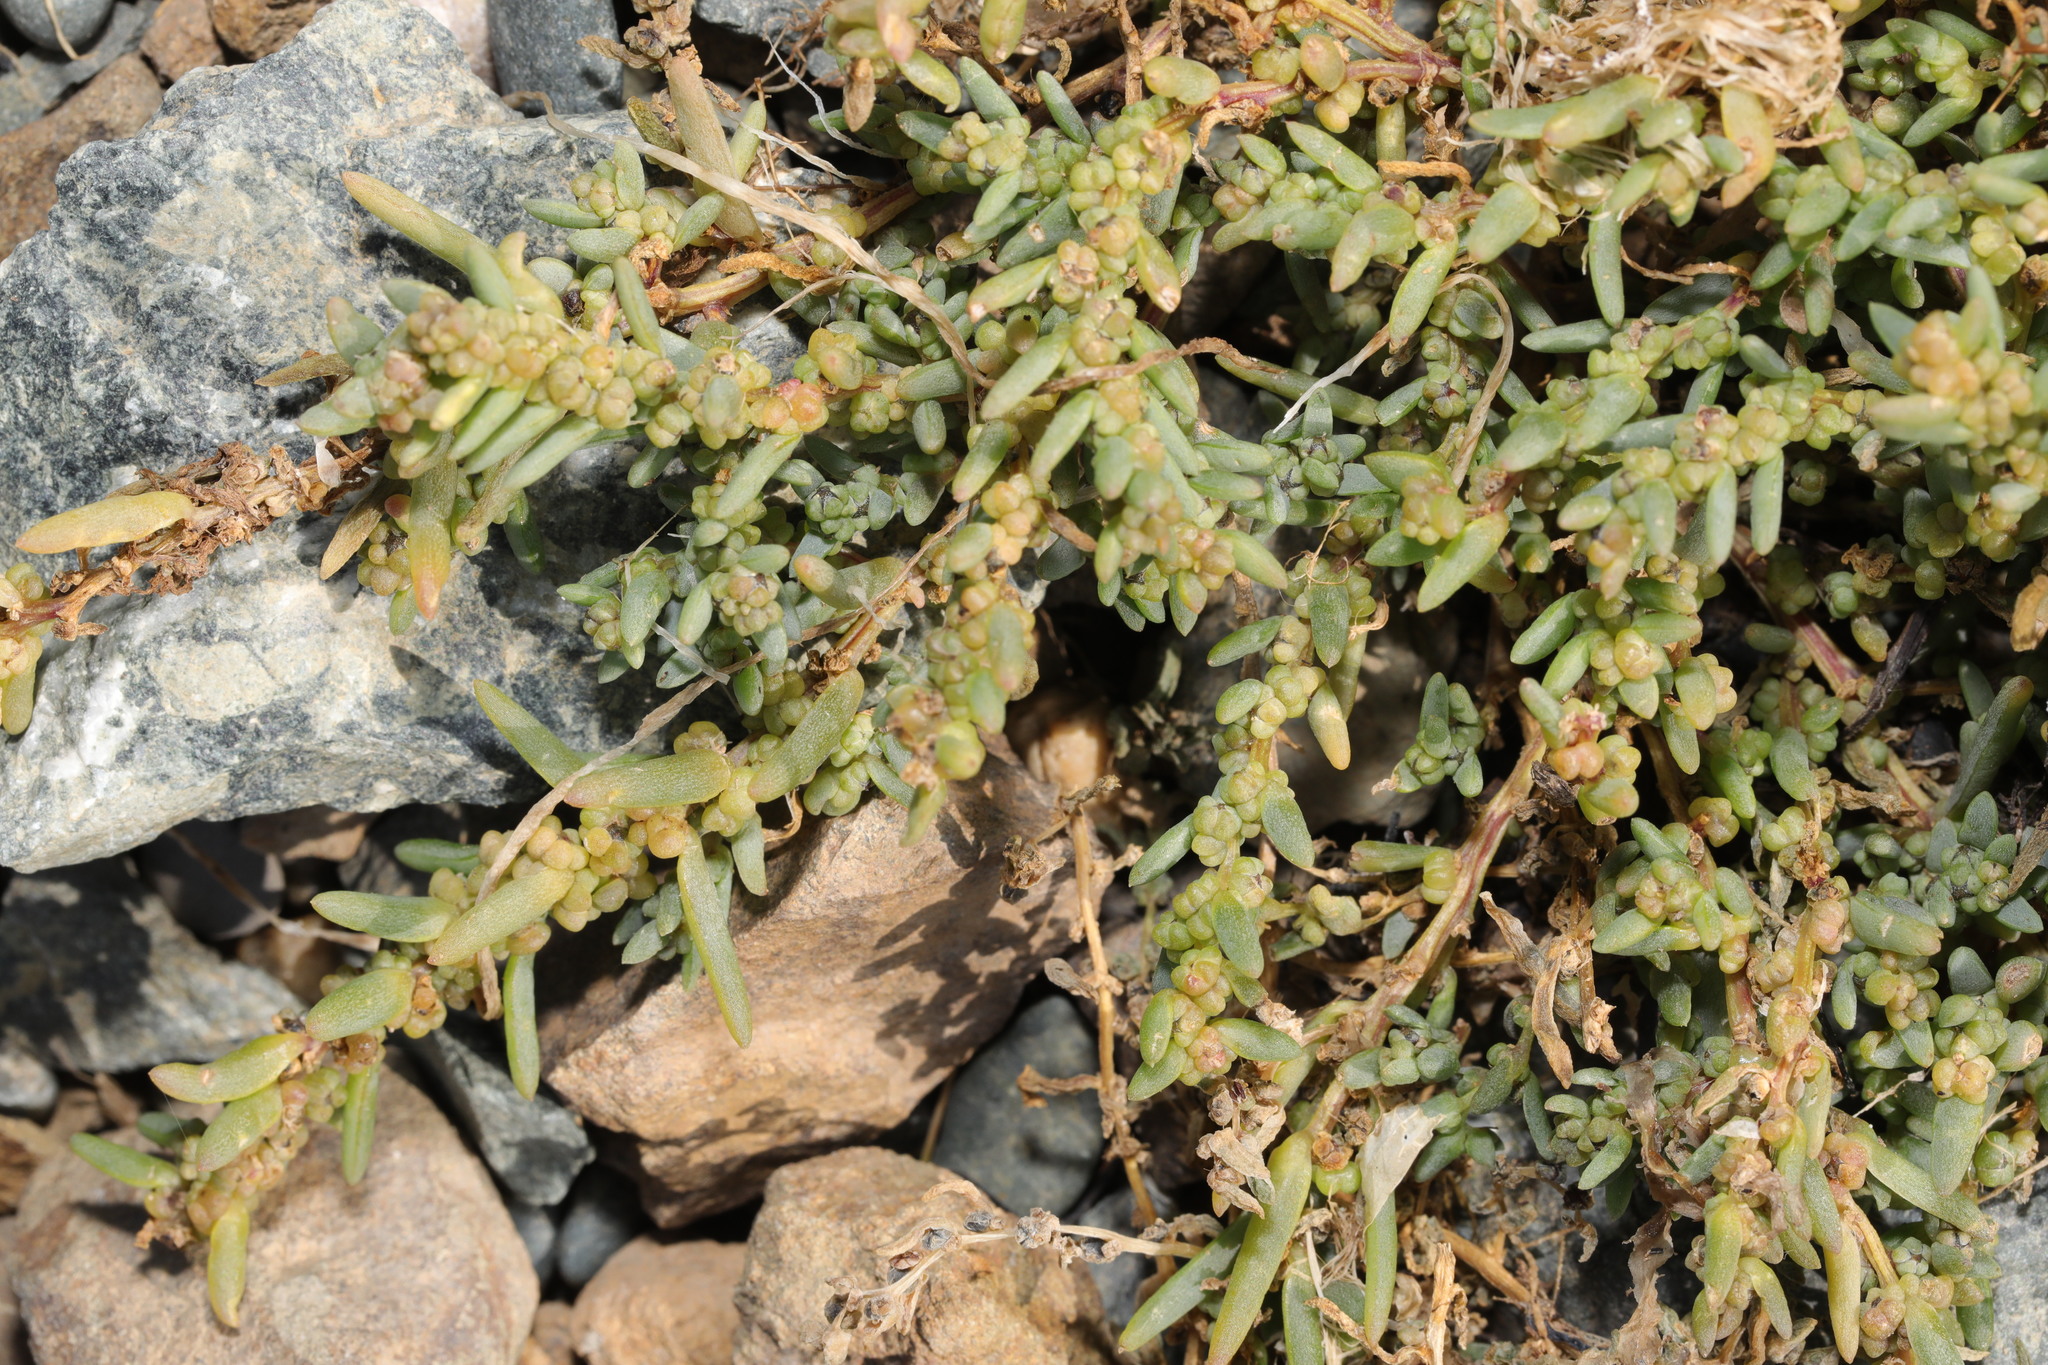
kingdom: Plantae
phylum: Tracheophyta
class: Magnoliopsida
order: Caryophyllales
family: Amaranthaceae
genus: Suaeda
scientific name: Suaeda maritima
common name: Annual sea-blite
